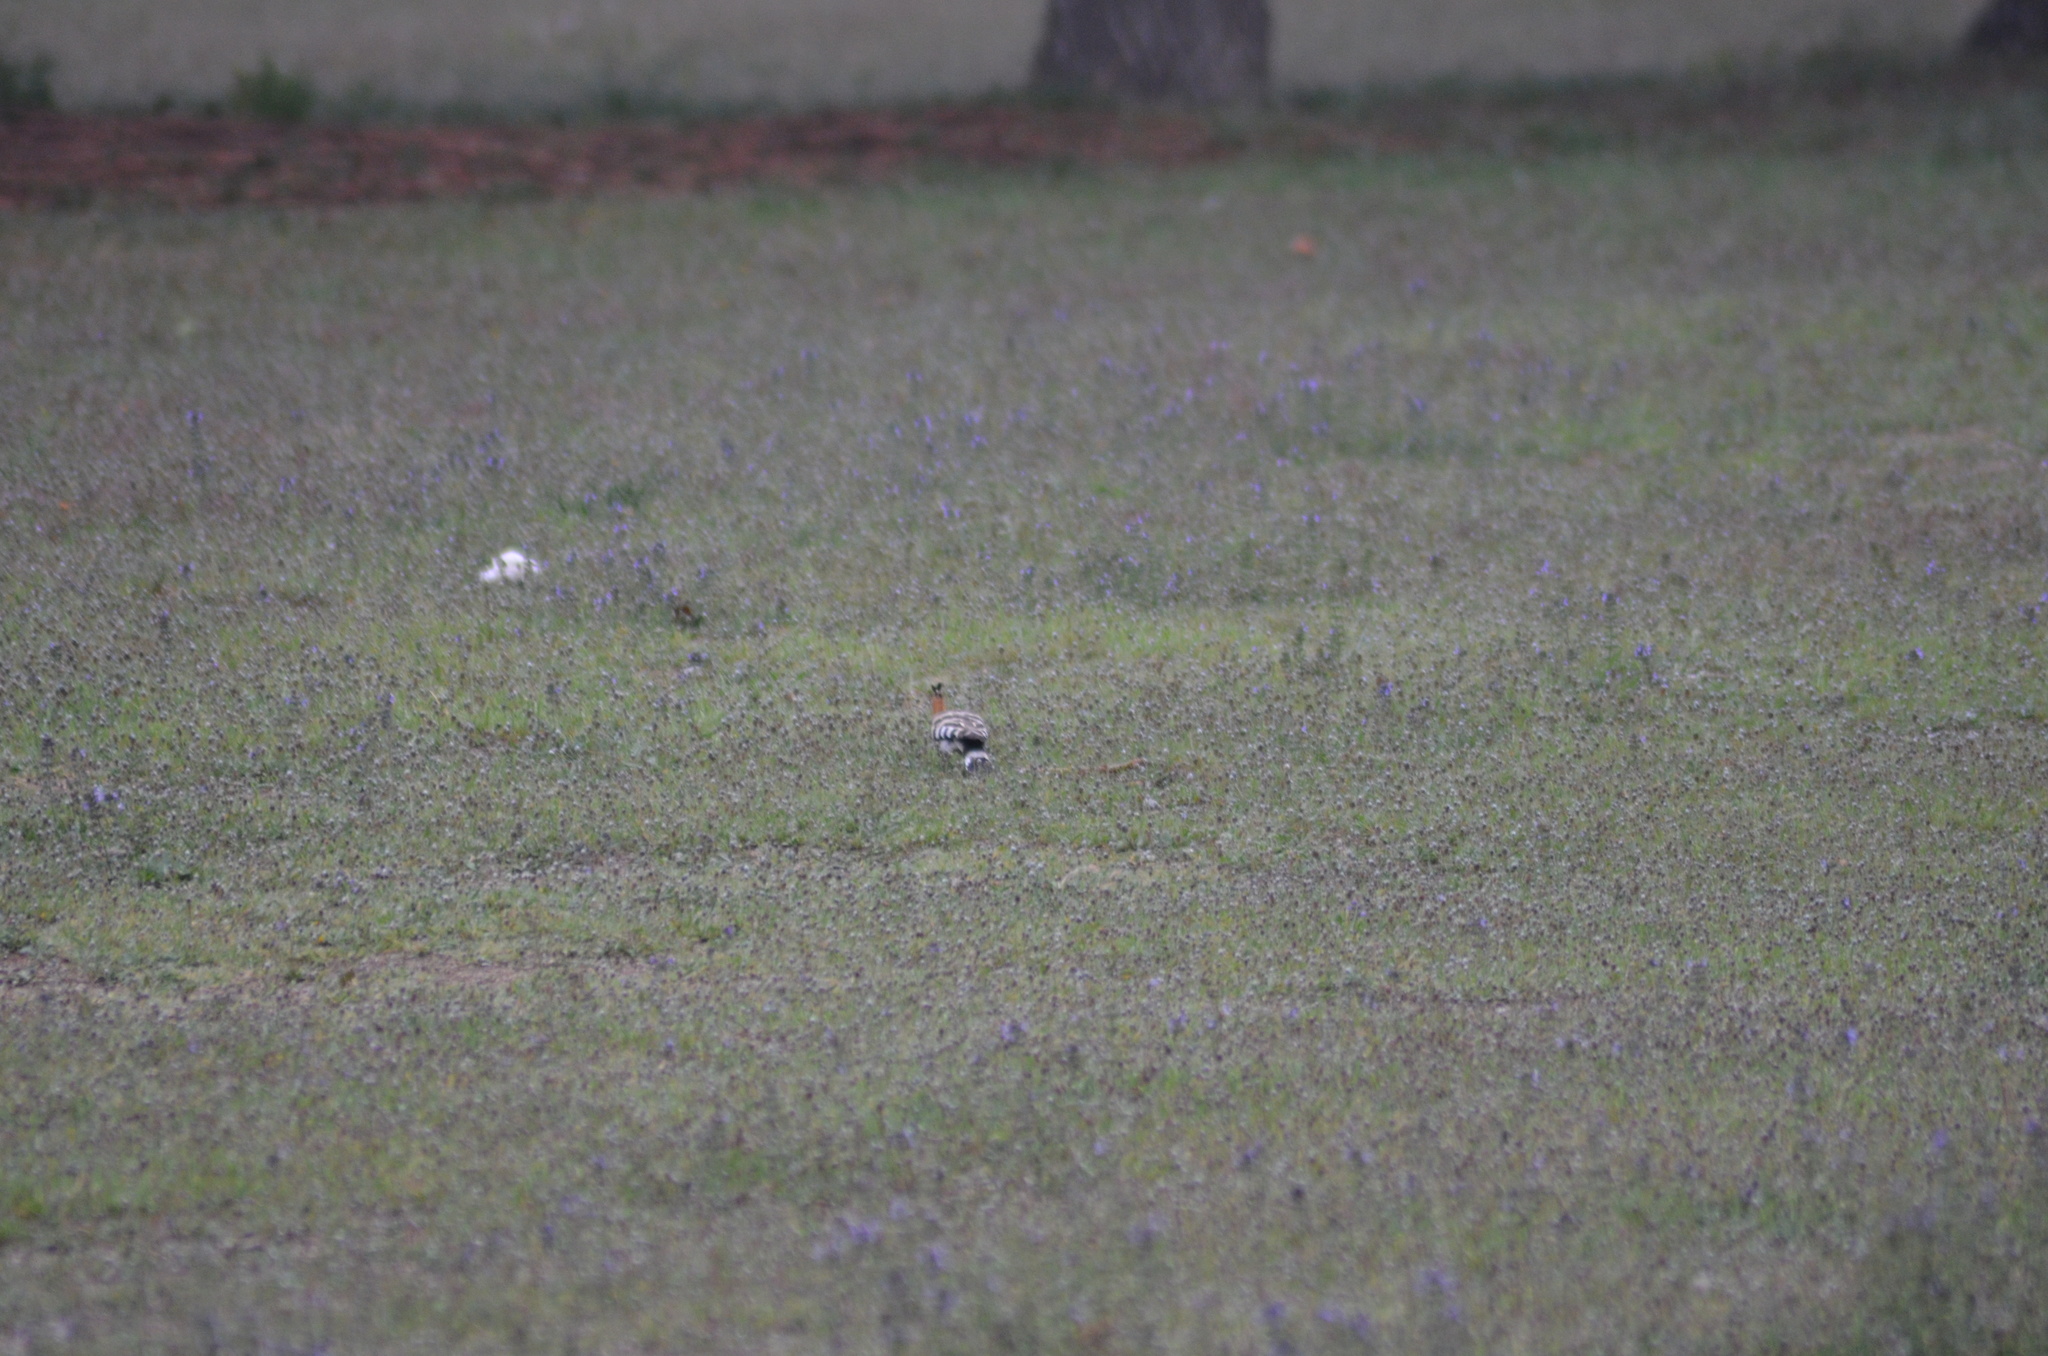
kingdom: Animalia
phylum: Chordata
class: Aves
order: Bucerotiformes
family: Upupidae
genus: Upupa
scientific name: Upupa epops
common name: Eurasian hoopoe
